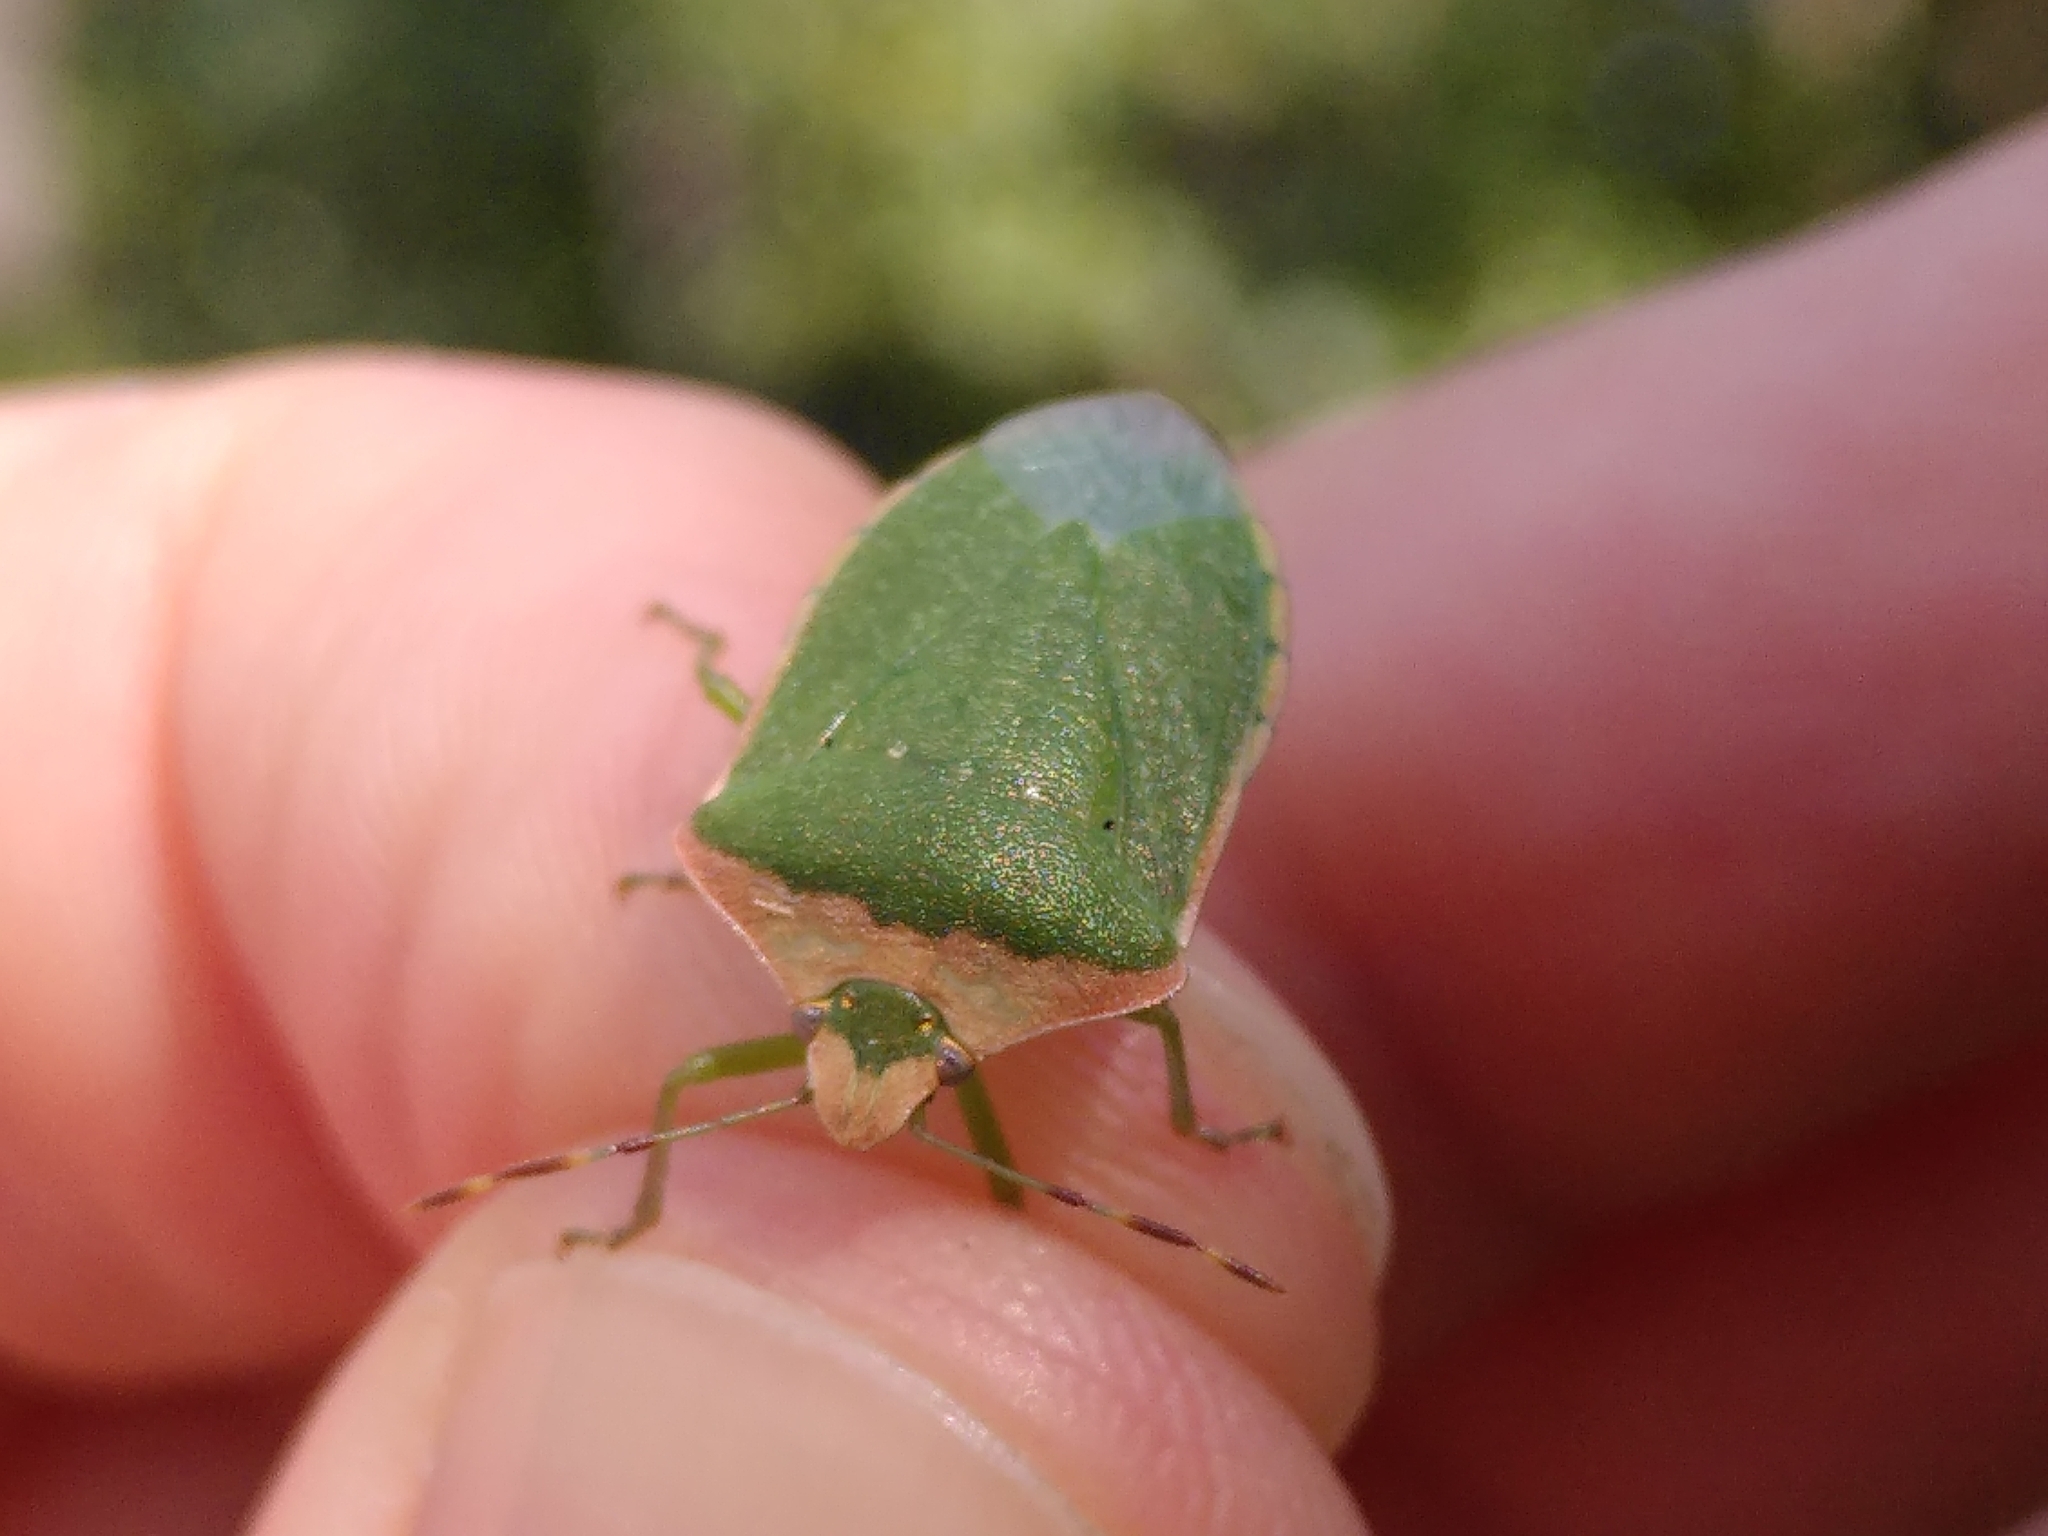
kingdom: Animalia
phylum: Arthropoda
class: Insecta
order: Hemiptera
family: Pentatomidae
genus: Nezara
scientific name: Nezara viridula
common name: Southern green stink bug
